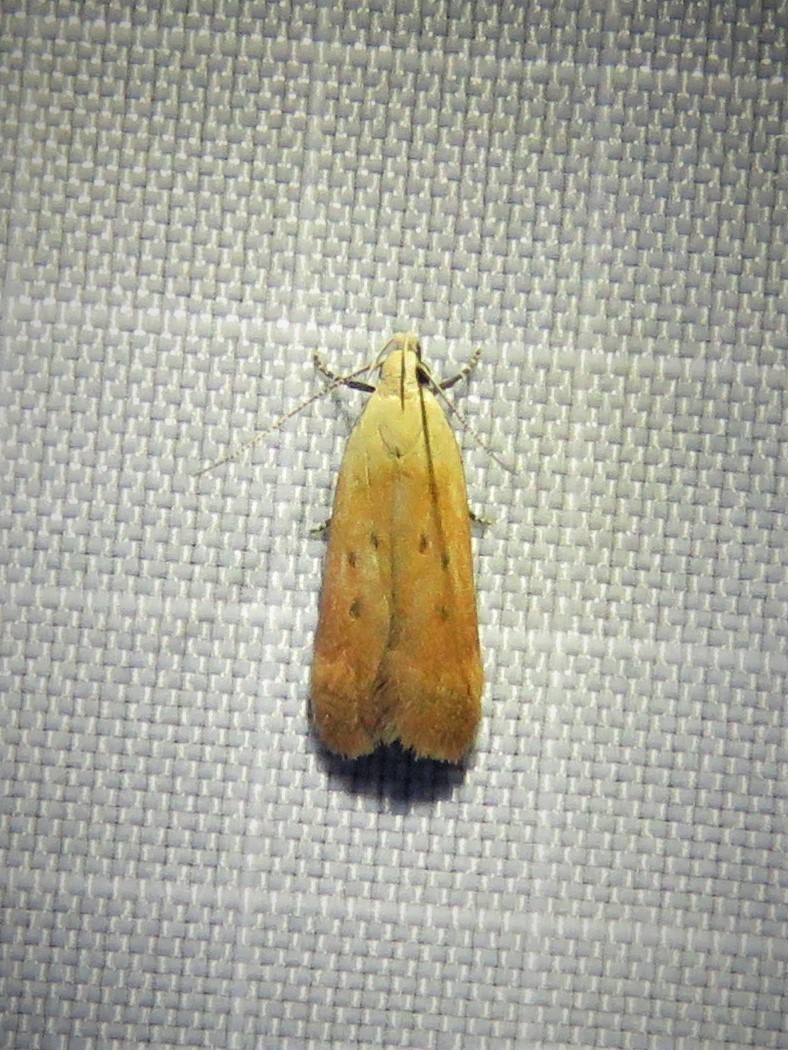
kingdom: Animalia
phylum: Arthropoda
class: Insecta
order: Lepidoptera
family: Gelechiidae
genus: Anacampsis
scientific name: Anacampsis fullonella
